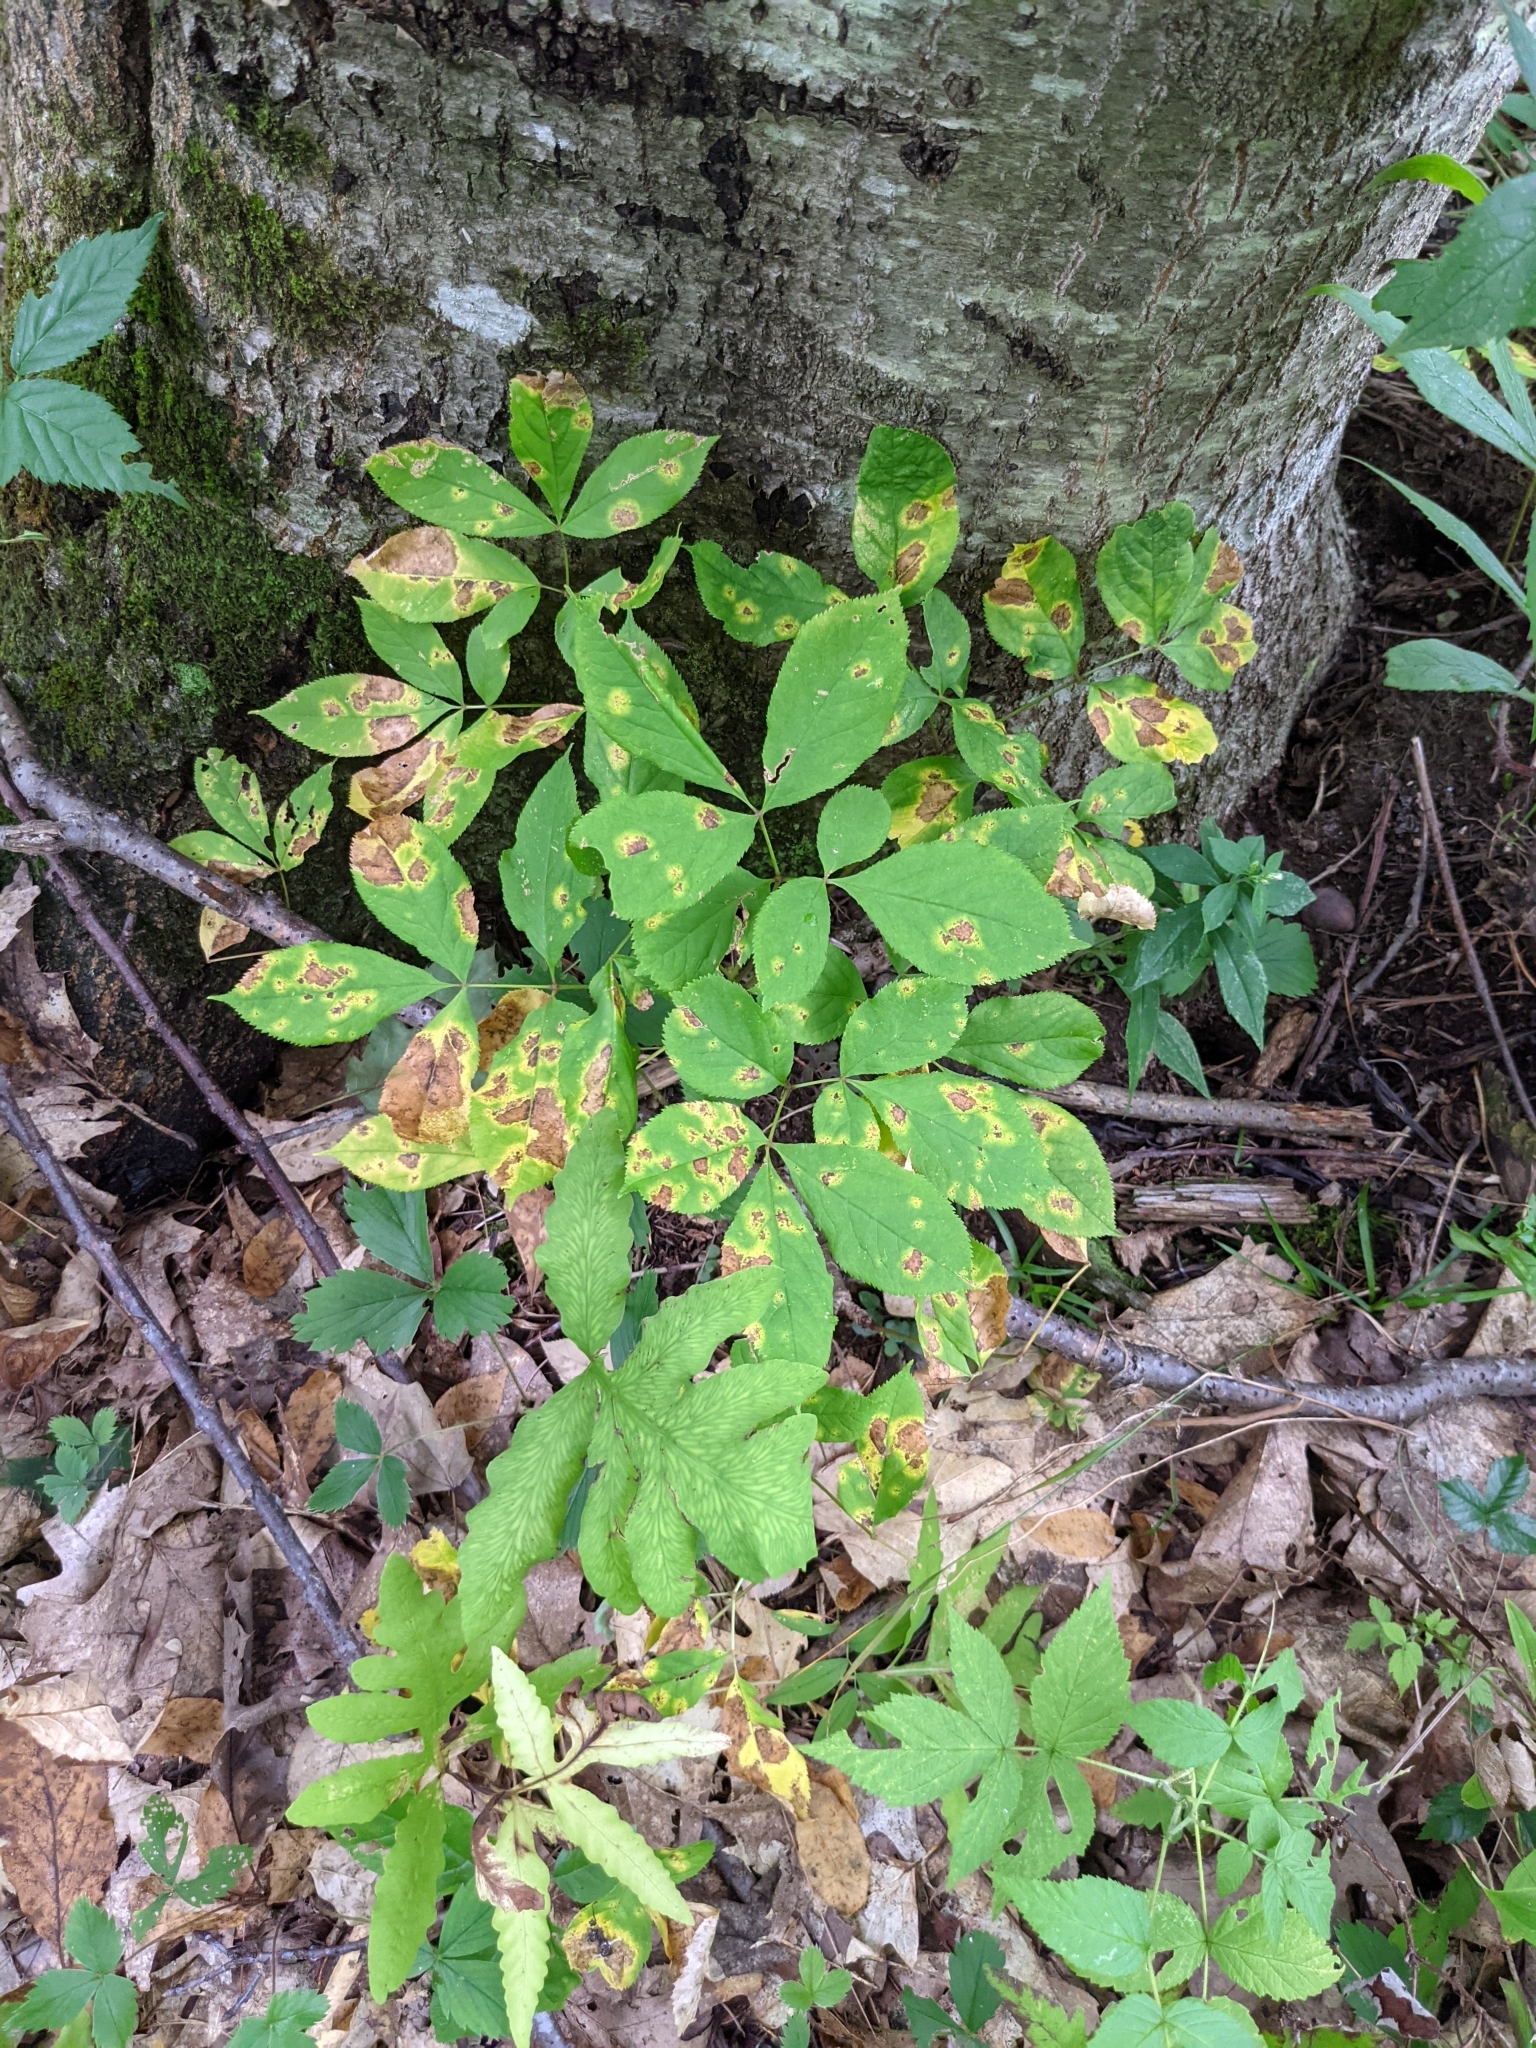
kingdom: Plantae
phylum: Tracheophyta
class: Magnoliopsida
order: Apiales
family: Araliaceae
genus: Aralia
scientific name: Aralia nudicaulis
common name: Wild sarsaparilla
